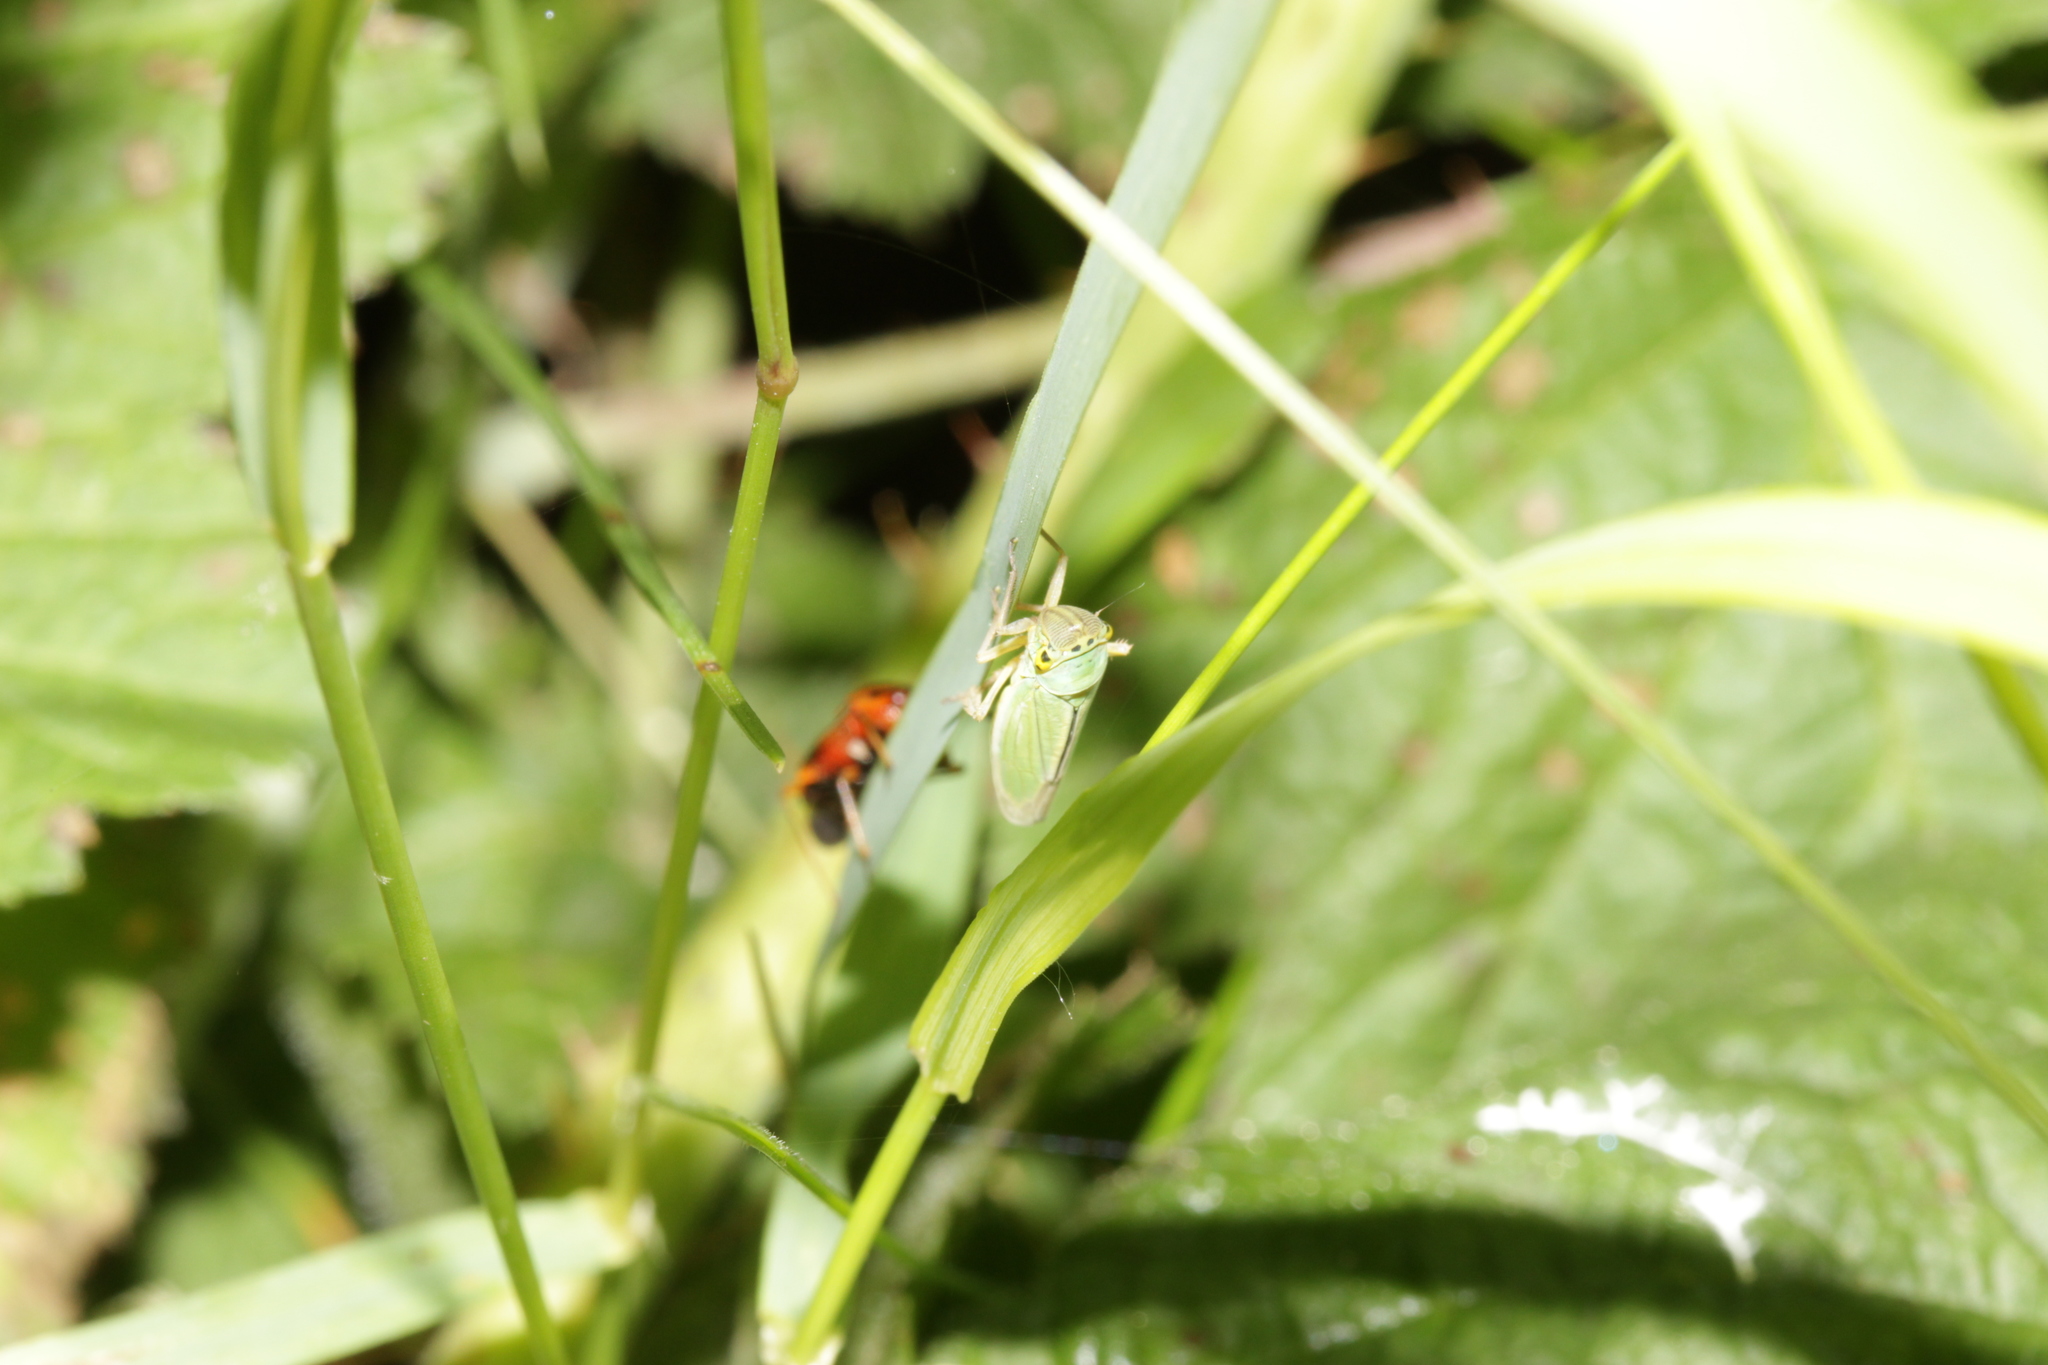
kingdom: Animalia
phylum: Arthropoda
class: Insecta
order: Hemiptera
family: Cicadellidae
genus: Cicadella
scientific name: Cicadella viridis
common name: Leafhopper
